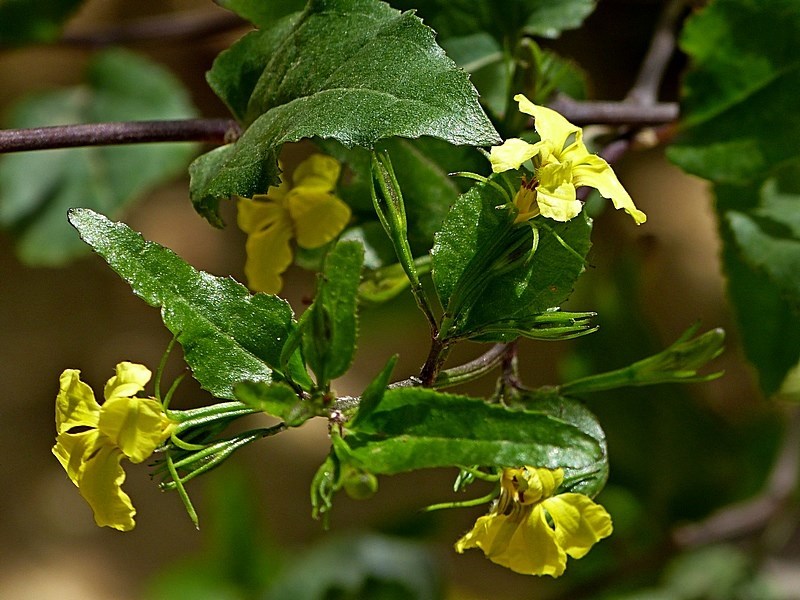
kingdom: Plantae
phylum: Tracheophyta
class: Magnoliopsida
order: Asterales
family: Goodeniaceae
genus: Goodenia
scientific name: Goodenia ovata
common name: Hop goodenia
